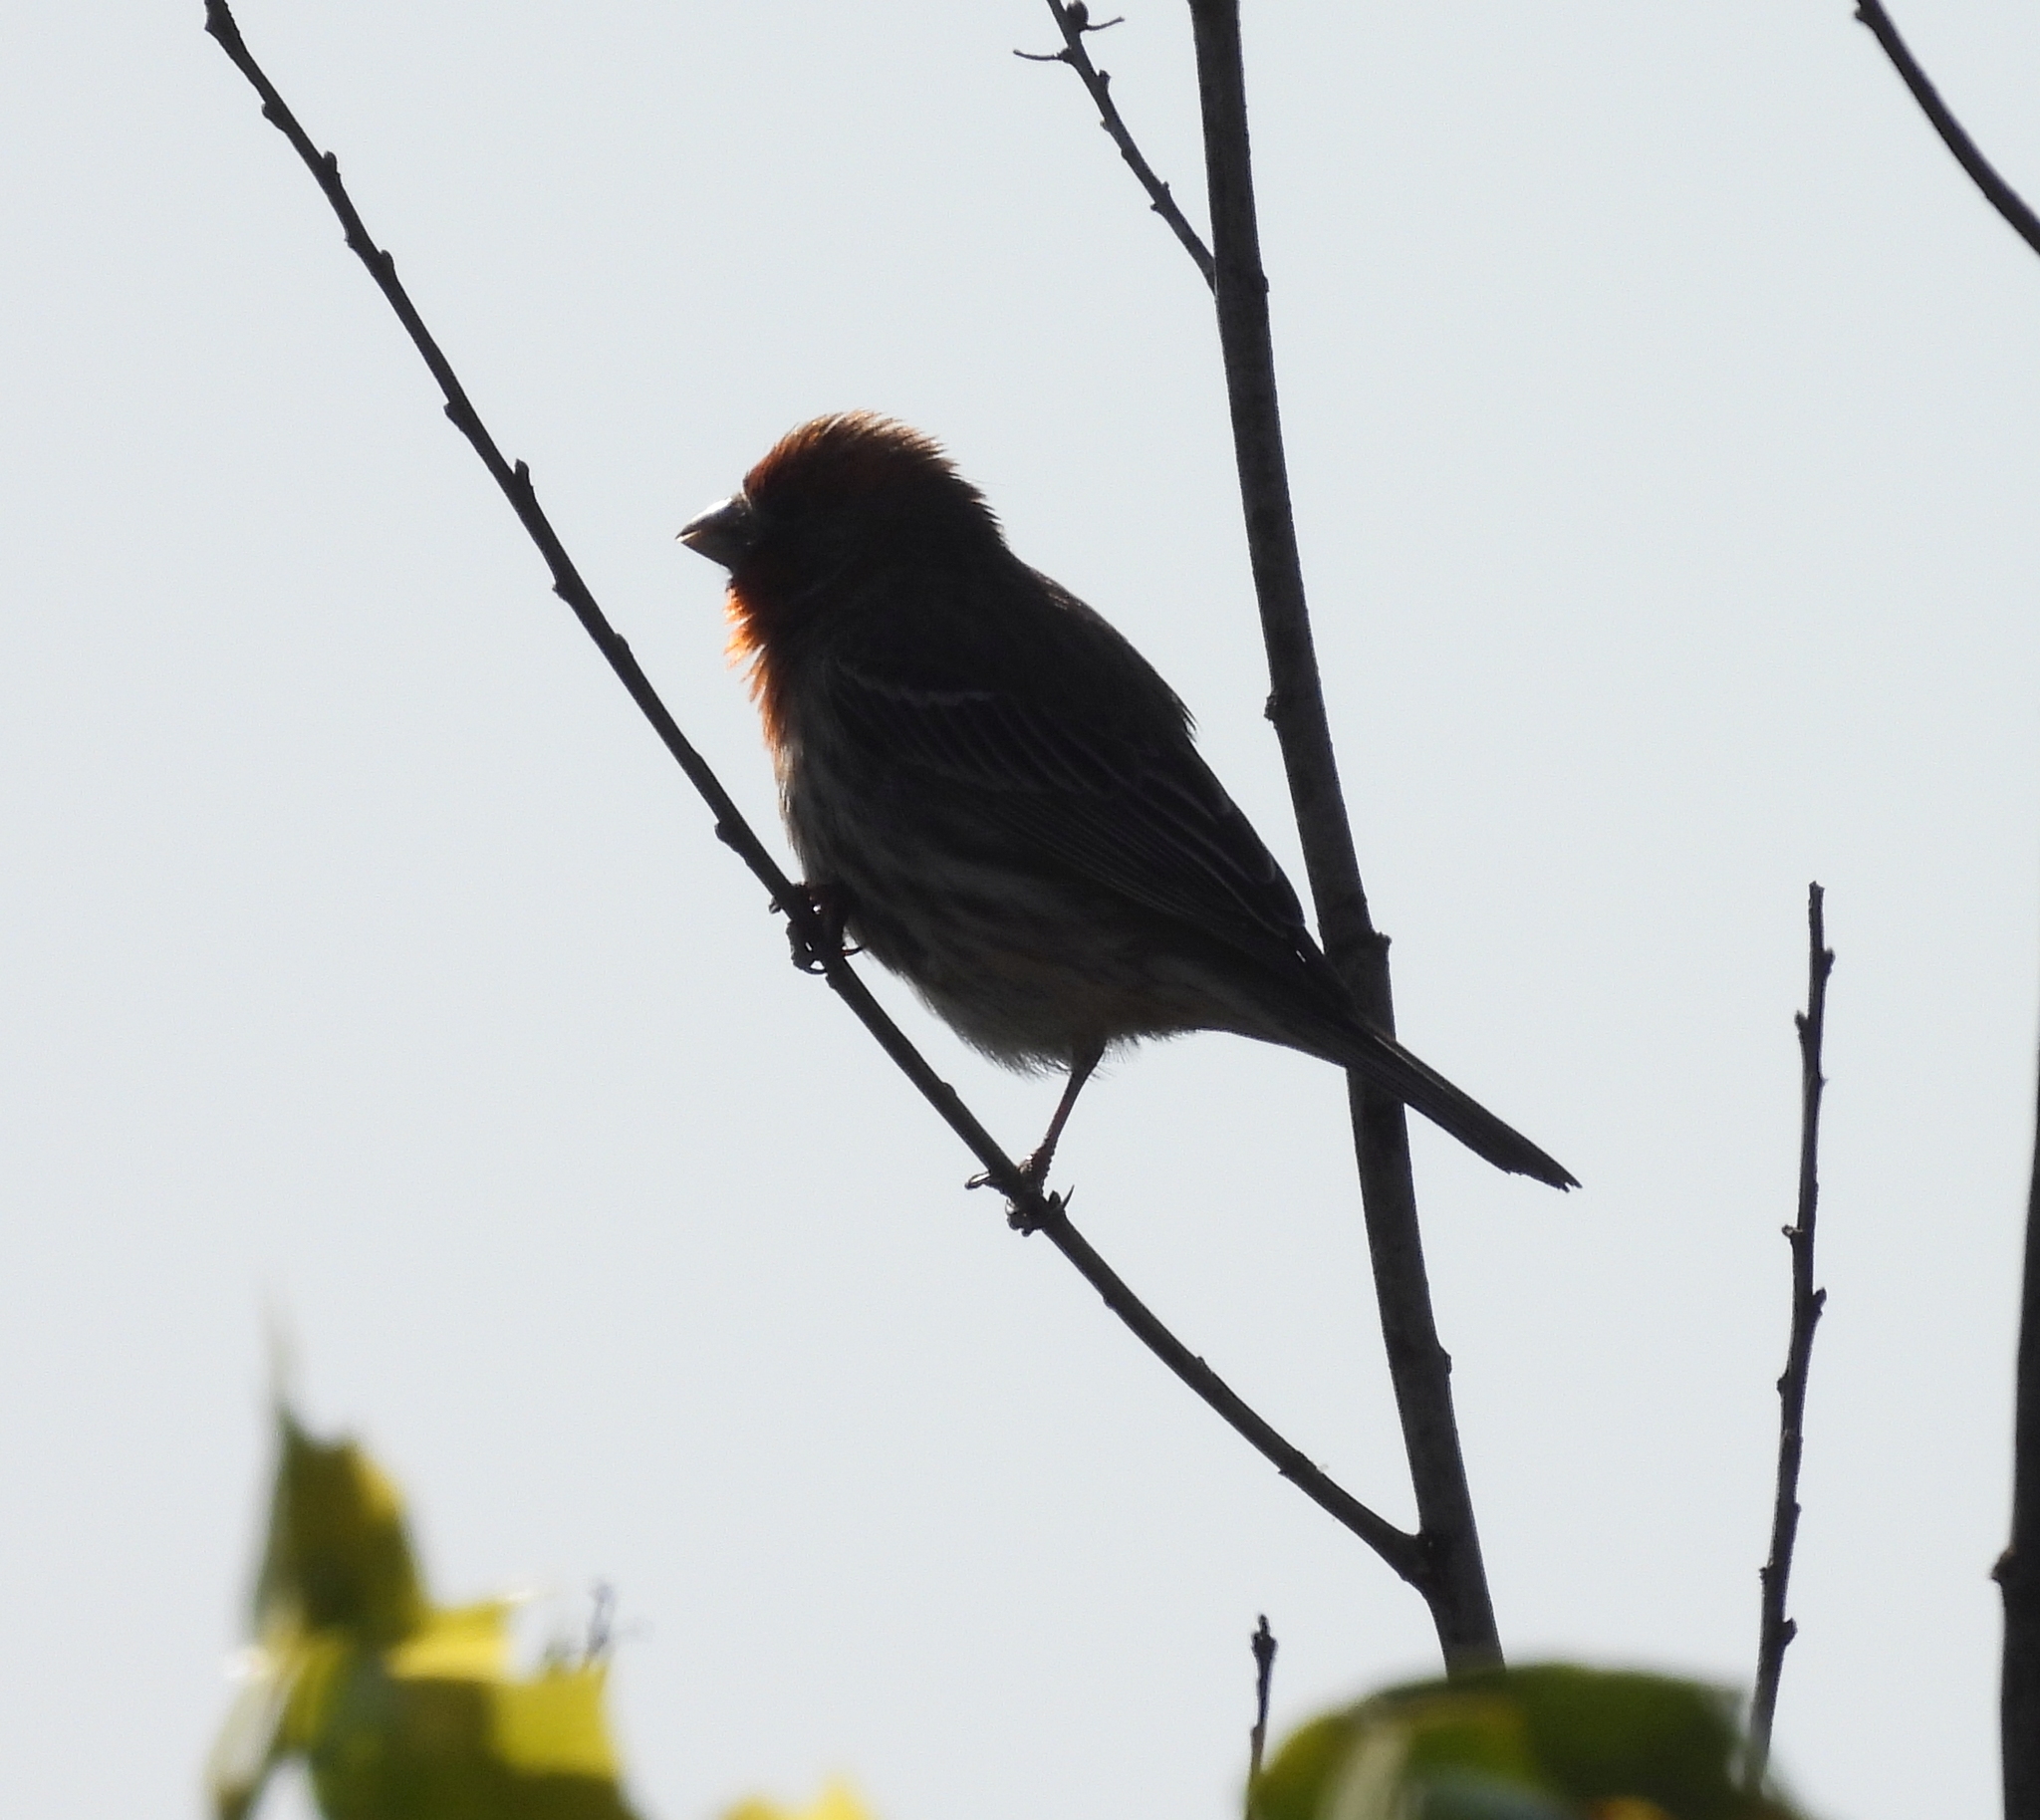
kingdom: Animalia
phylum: Chordata
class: Aves
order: Passeriformes
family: Fringillidae
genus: Haemorhous
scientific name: Haemorhous mexicanus
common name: House finch
